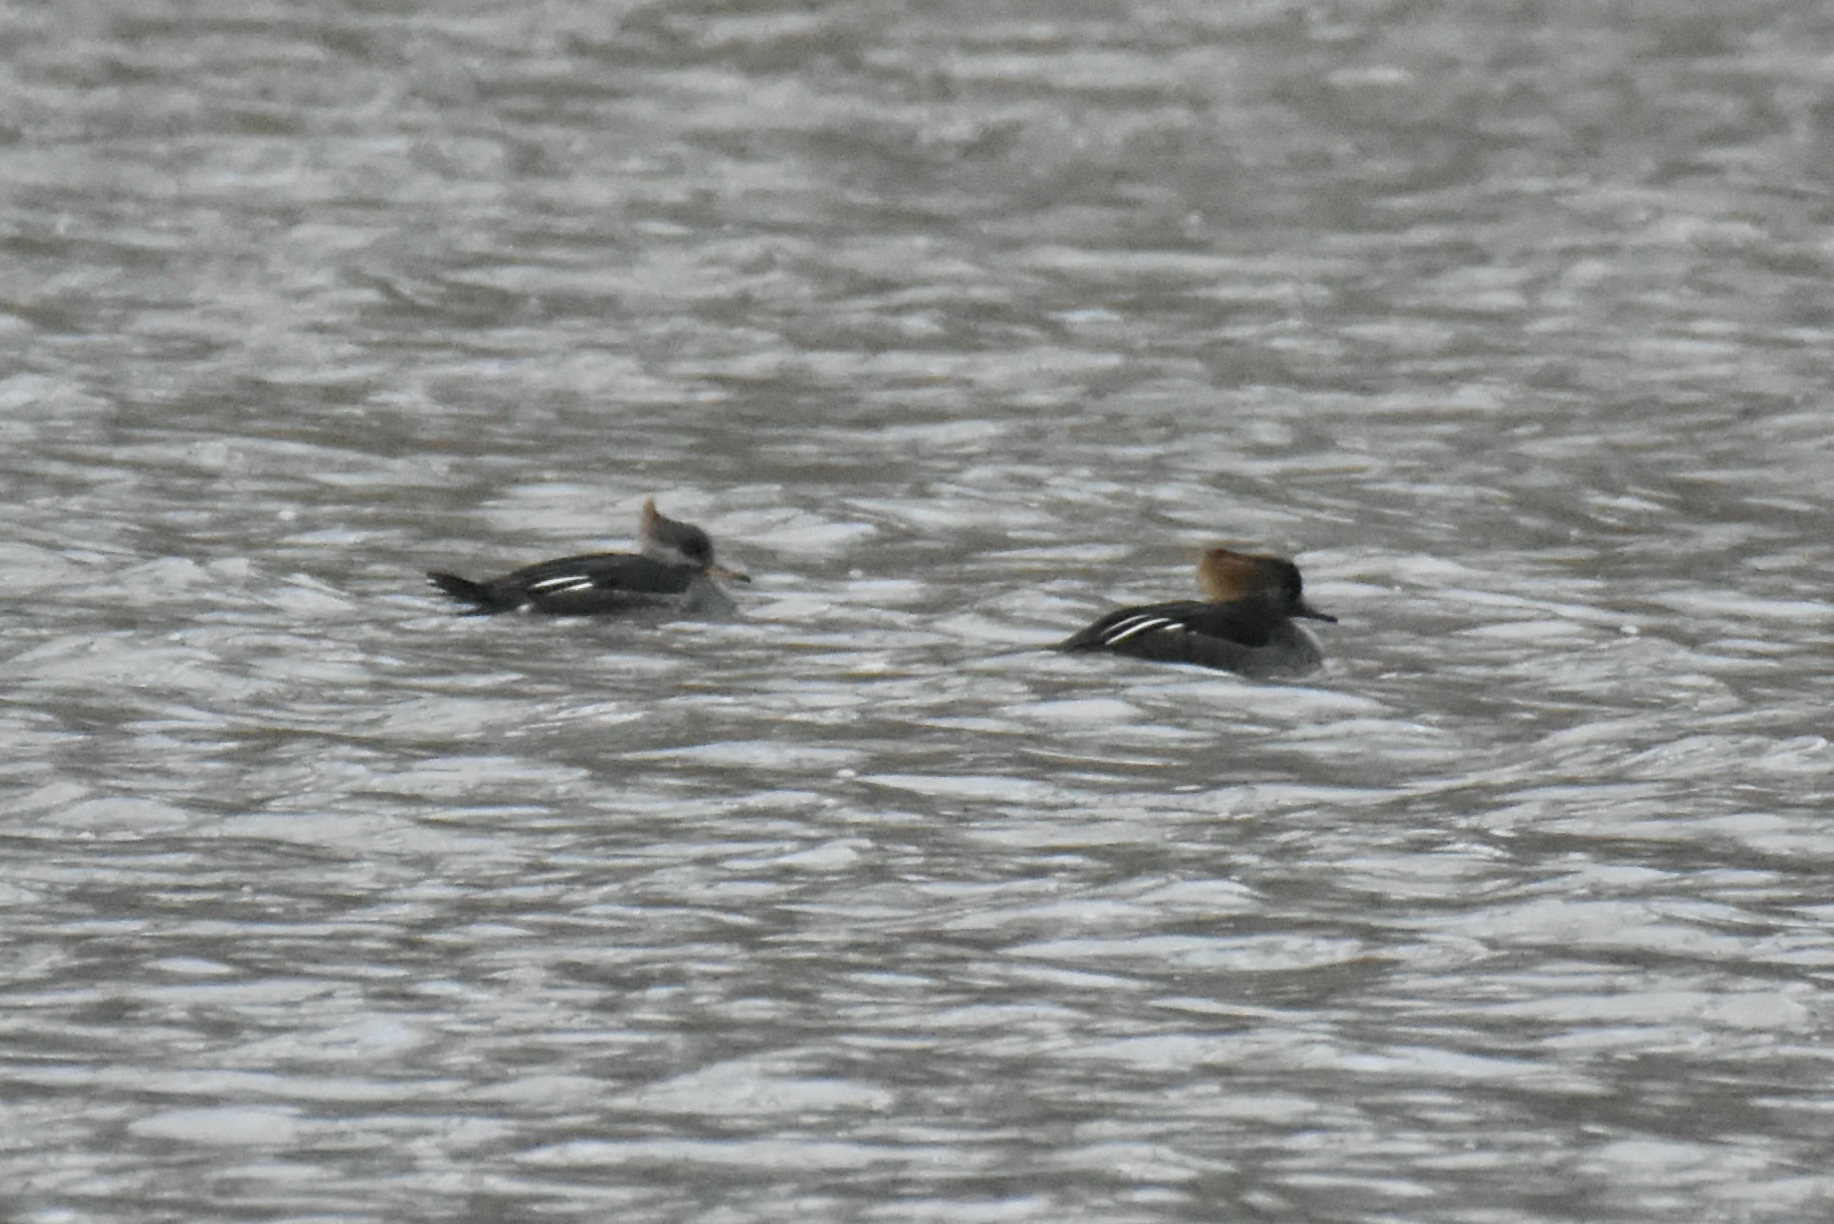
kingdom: Animalia
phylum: Chordata
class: Aves
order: Anseriformes
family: Anatidae
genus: Lophodytes
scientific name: Lophodytes cucullatus
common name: Hooded merganser
